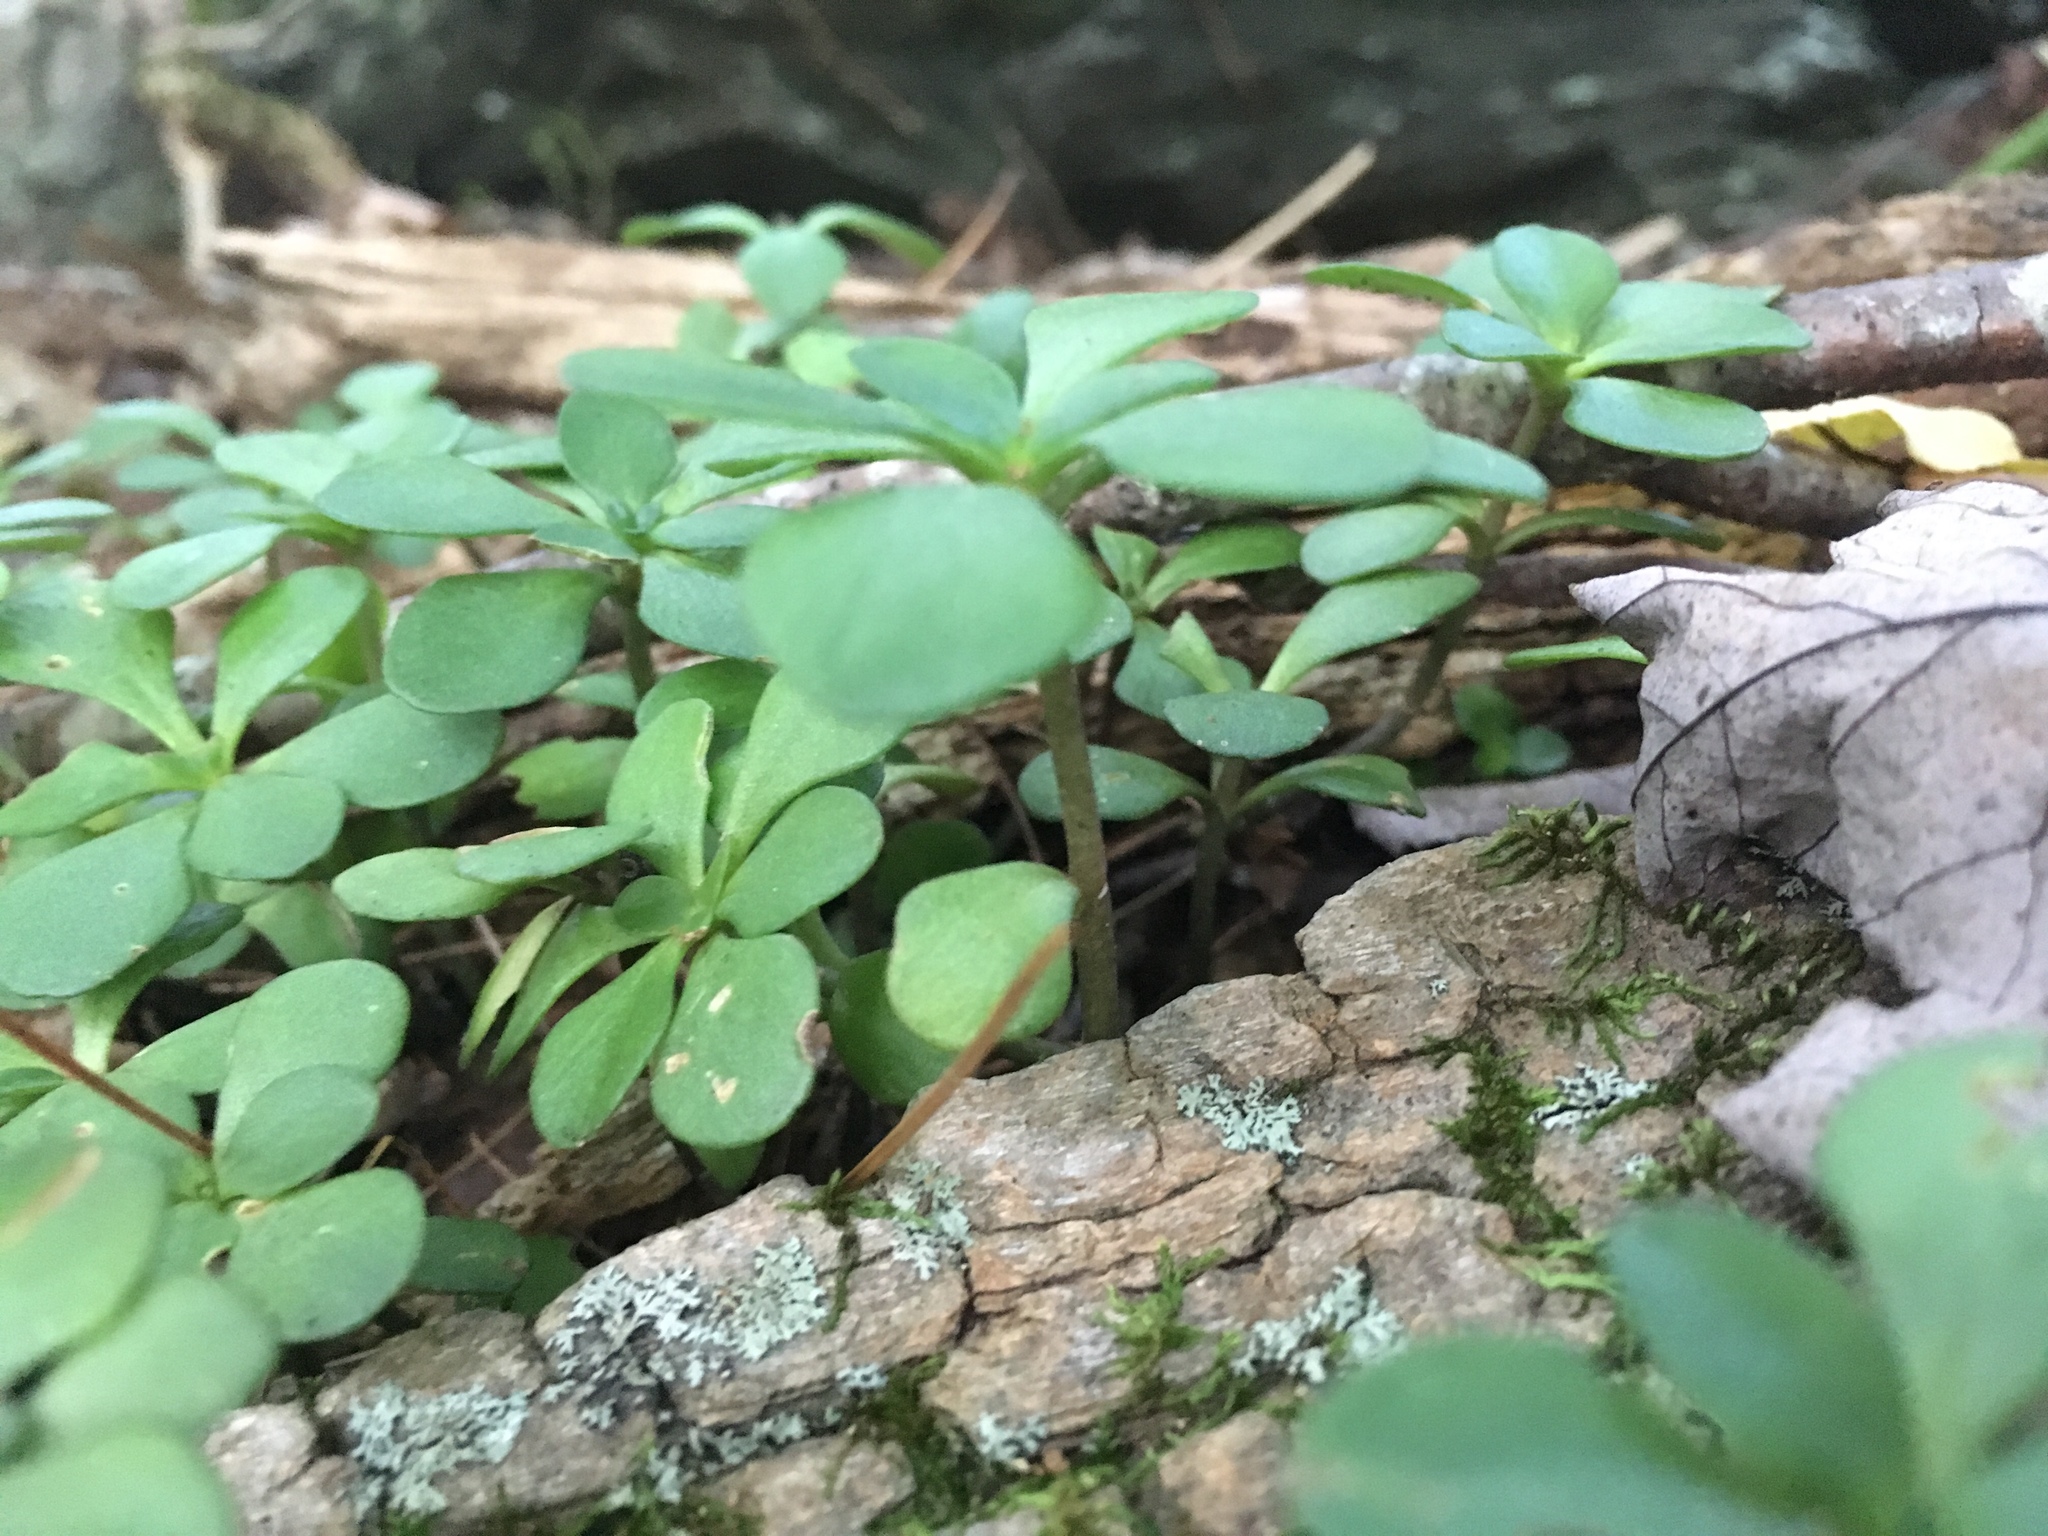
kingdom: Plantae
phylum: Tracheophyta
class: Magnoliopsida
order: Saxifragales
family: Crassulaceae
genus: Sedum
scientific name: Sedum ternatum
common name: Wild stonecrop
